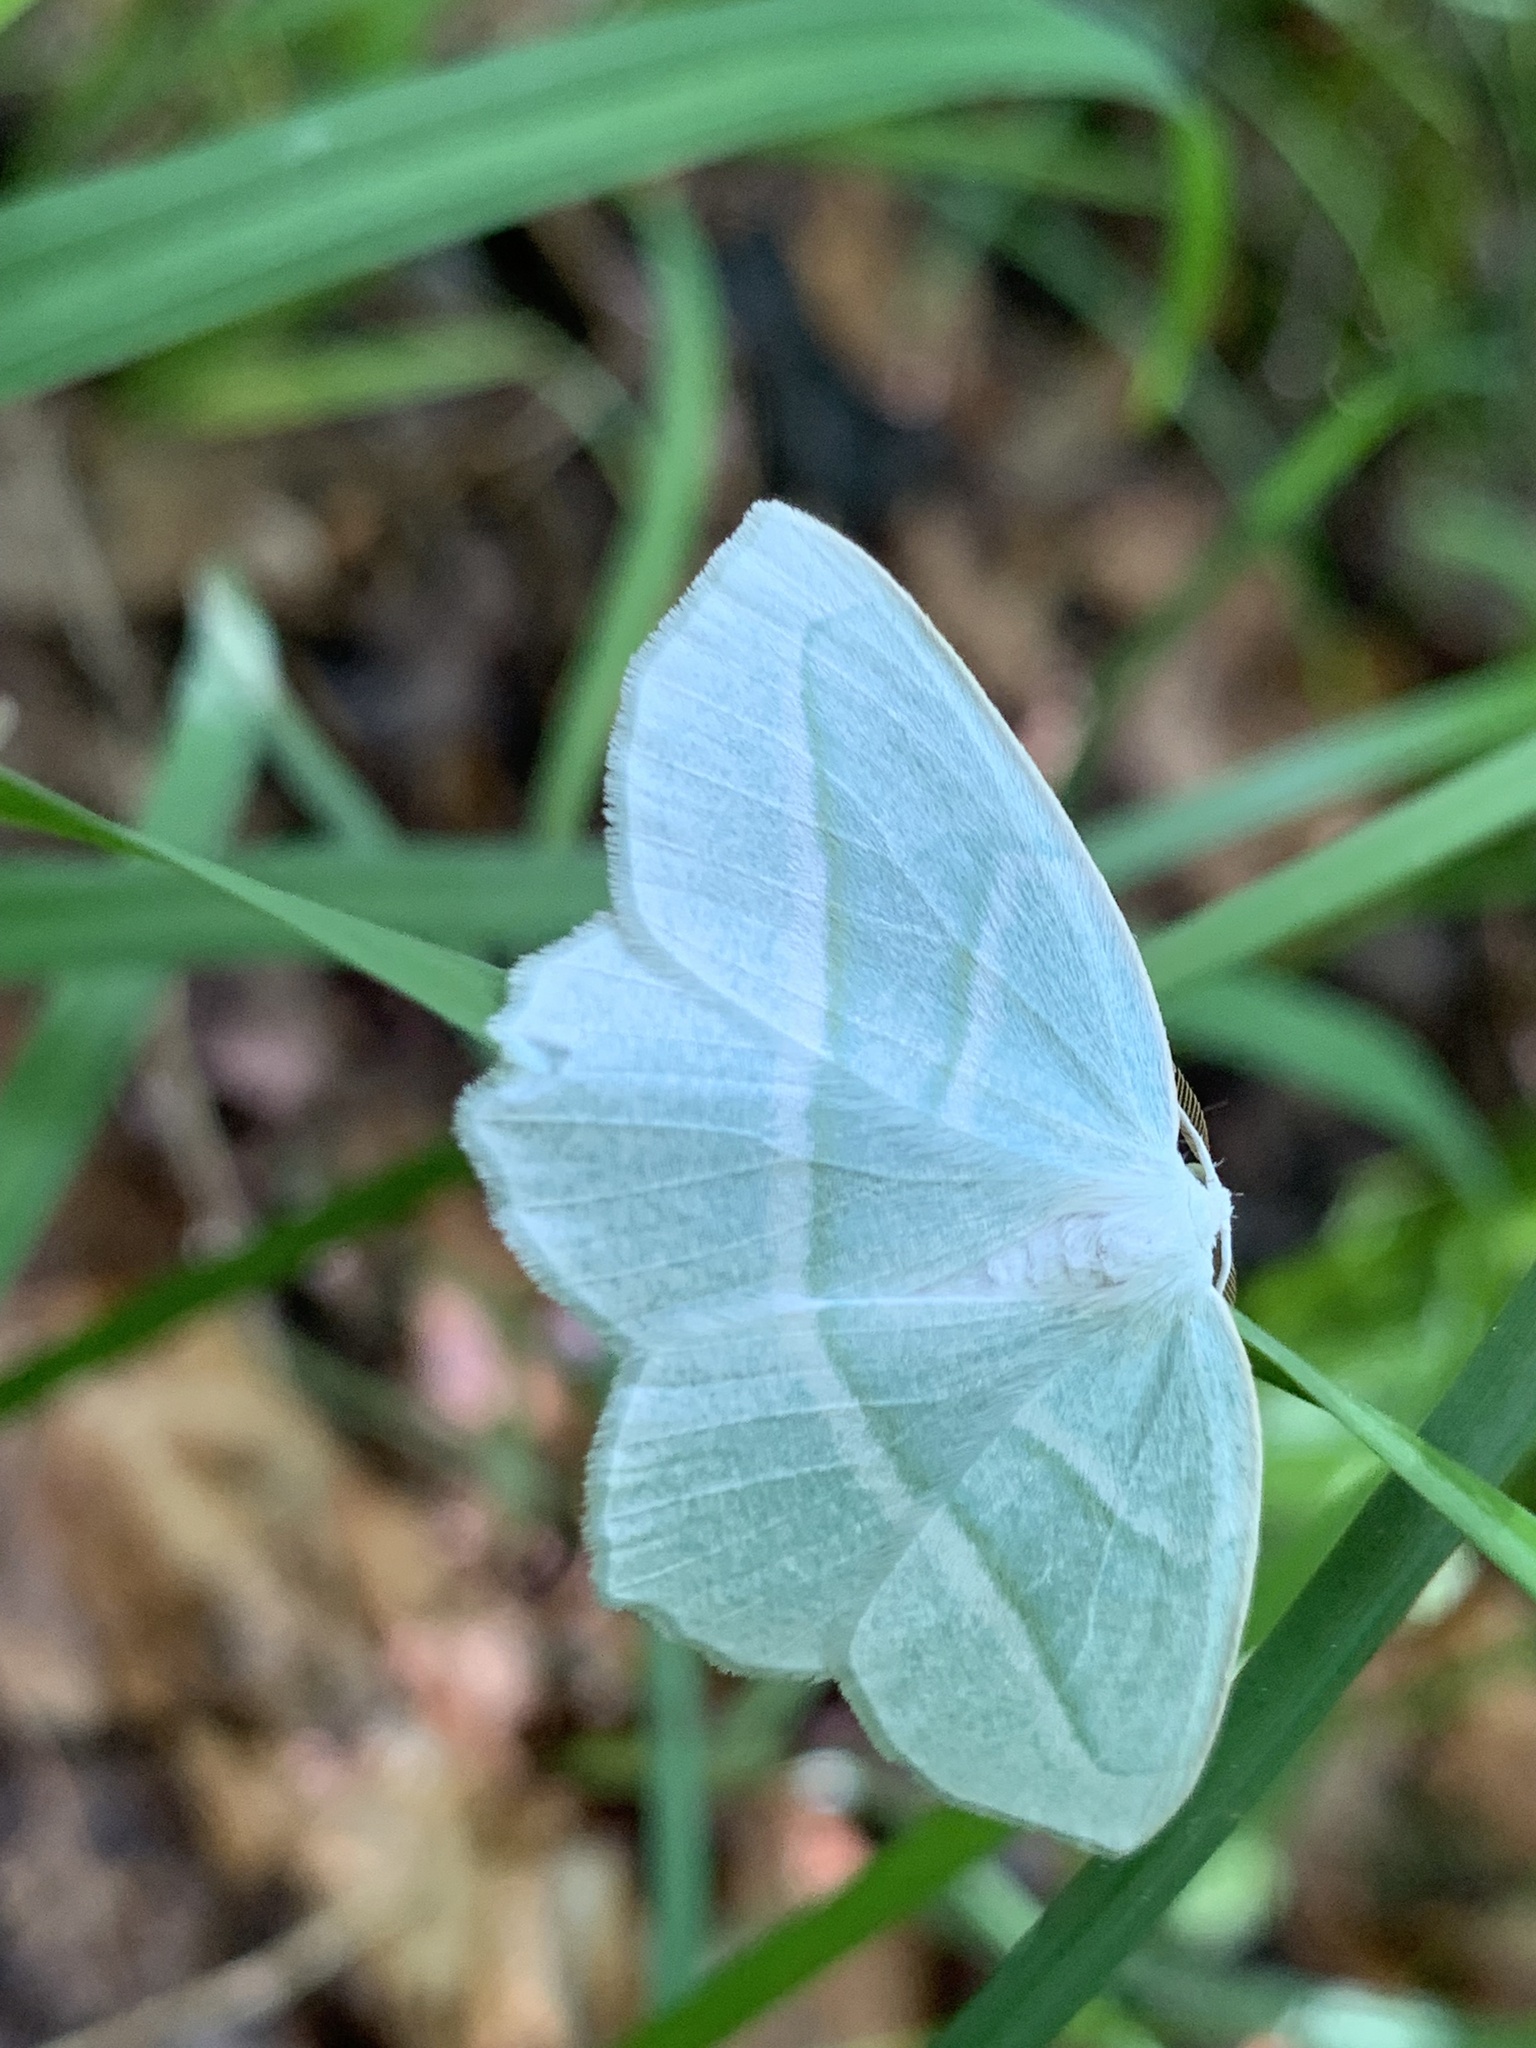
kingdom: Animalia
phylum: Arthropoda
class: Insecta
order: Lepidoptera
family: Geometridae
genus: Campaea
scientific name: Campaea perlata
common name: Fringed looper
